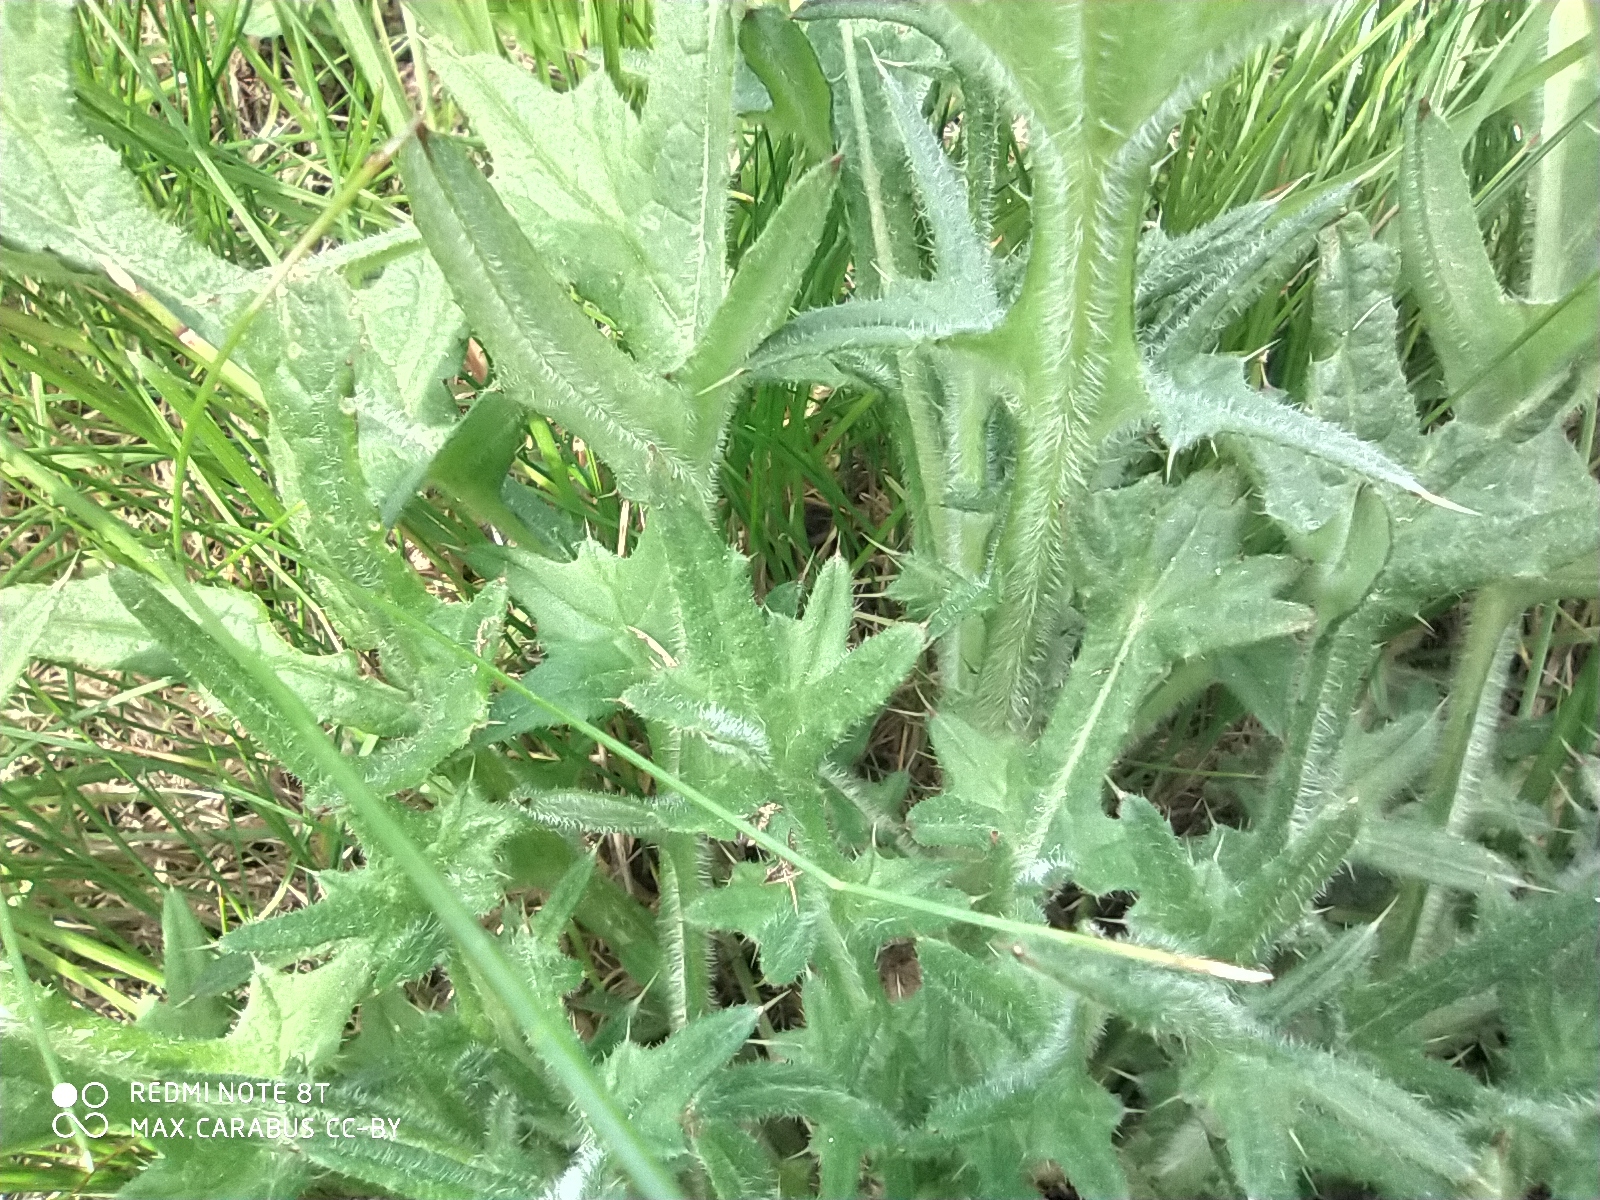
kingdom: Plantae
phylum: Tracheophyta
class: Magnoliopsida
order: Asterales
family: Asteraceae
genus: Cirsium
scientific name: Cirsium vulgare
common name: Bull thistle
